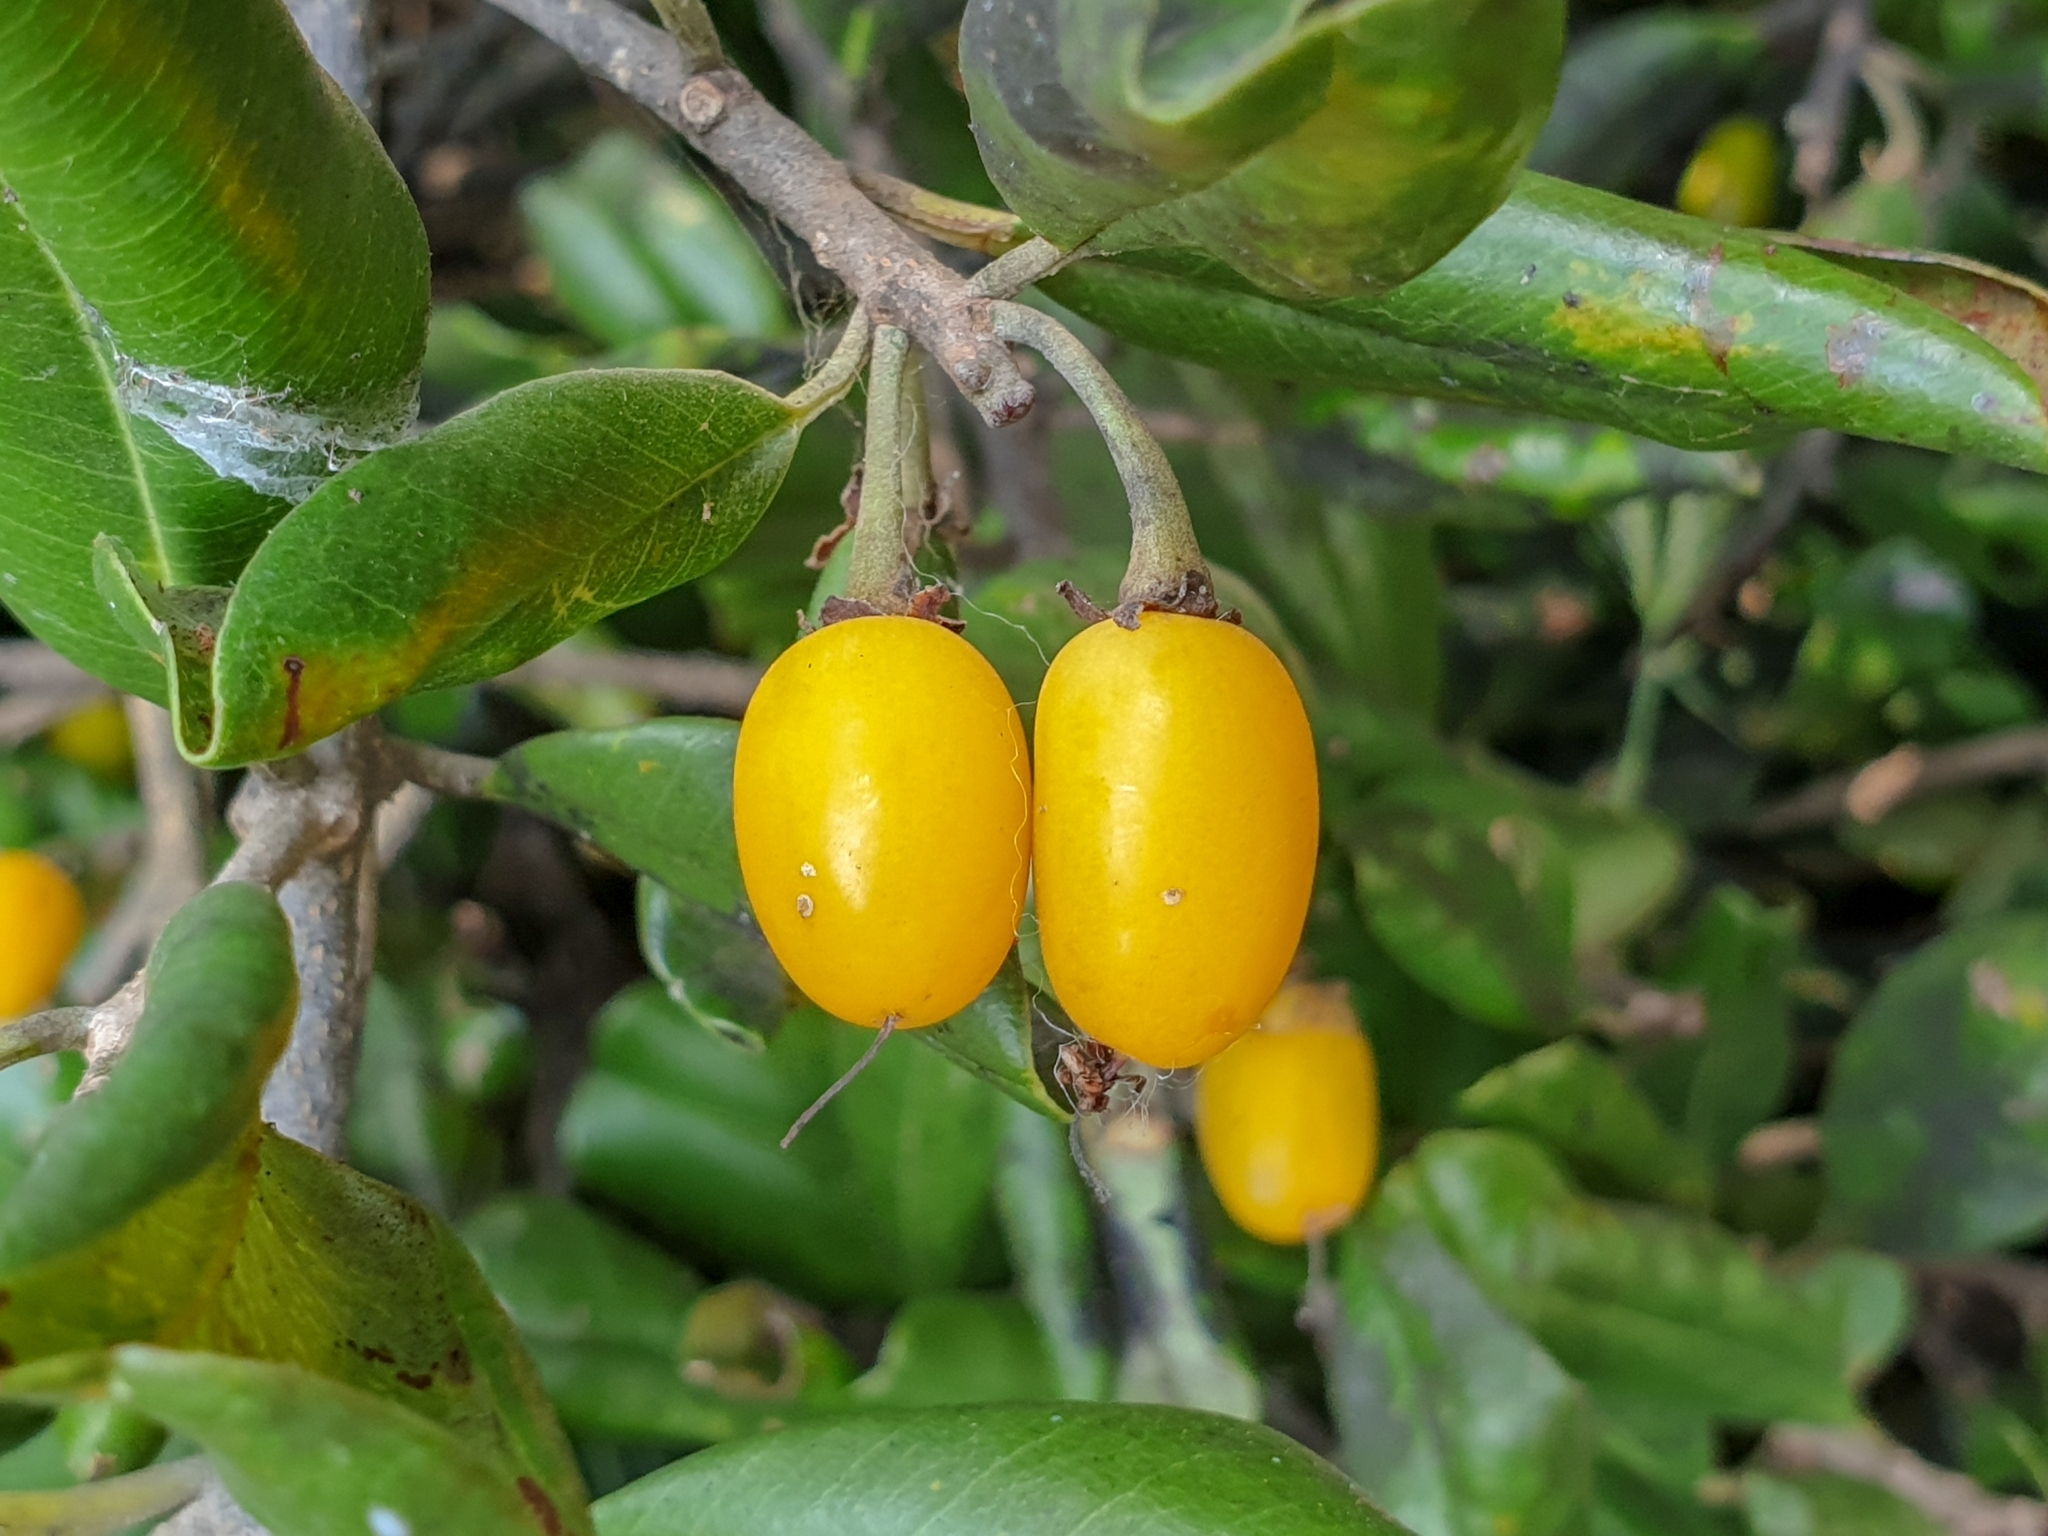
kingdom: Plantae
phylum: Tracheophyta
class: Magnoliopsida
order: Ericales
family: Sapotaceae
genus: Manilkara
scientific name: Manilkara hexandra
